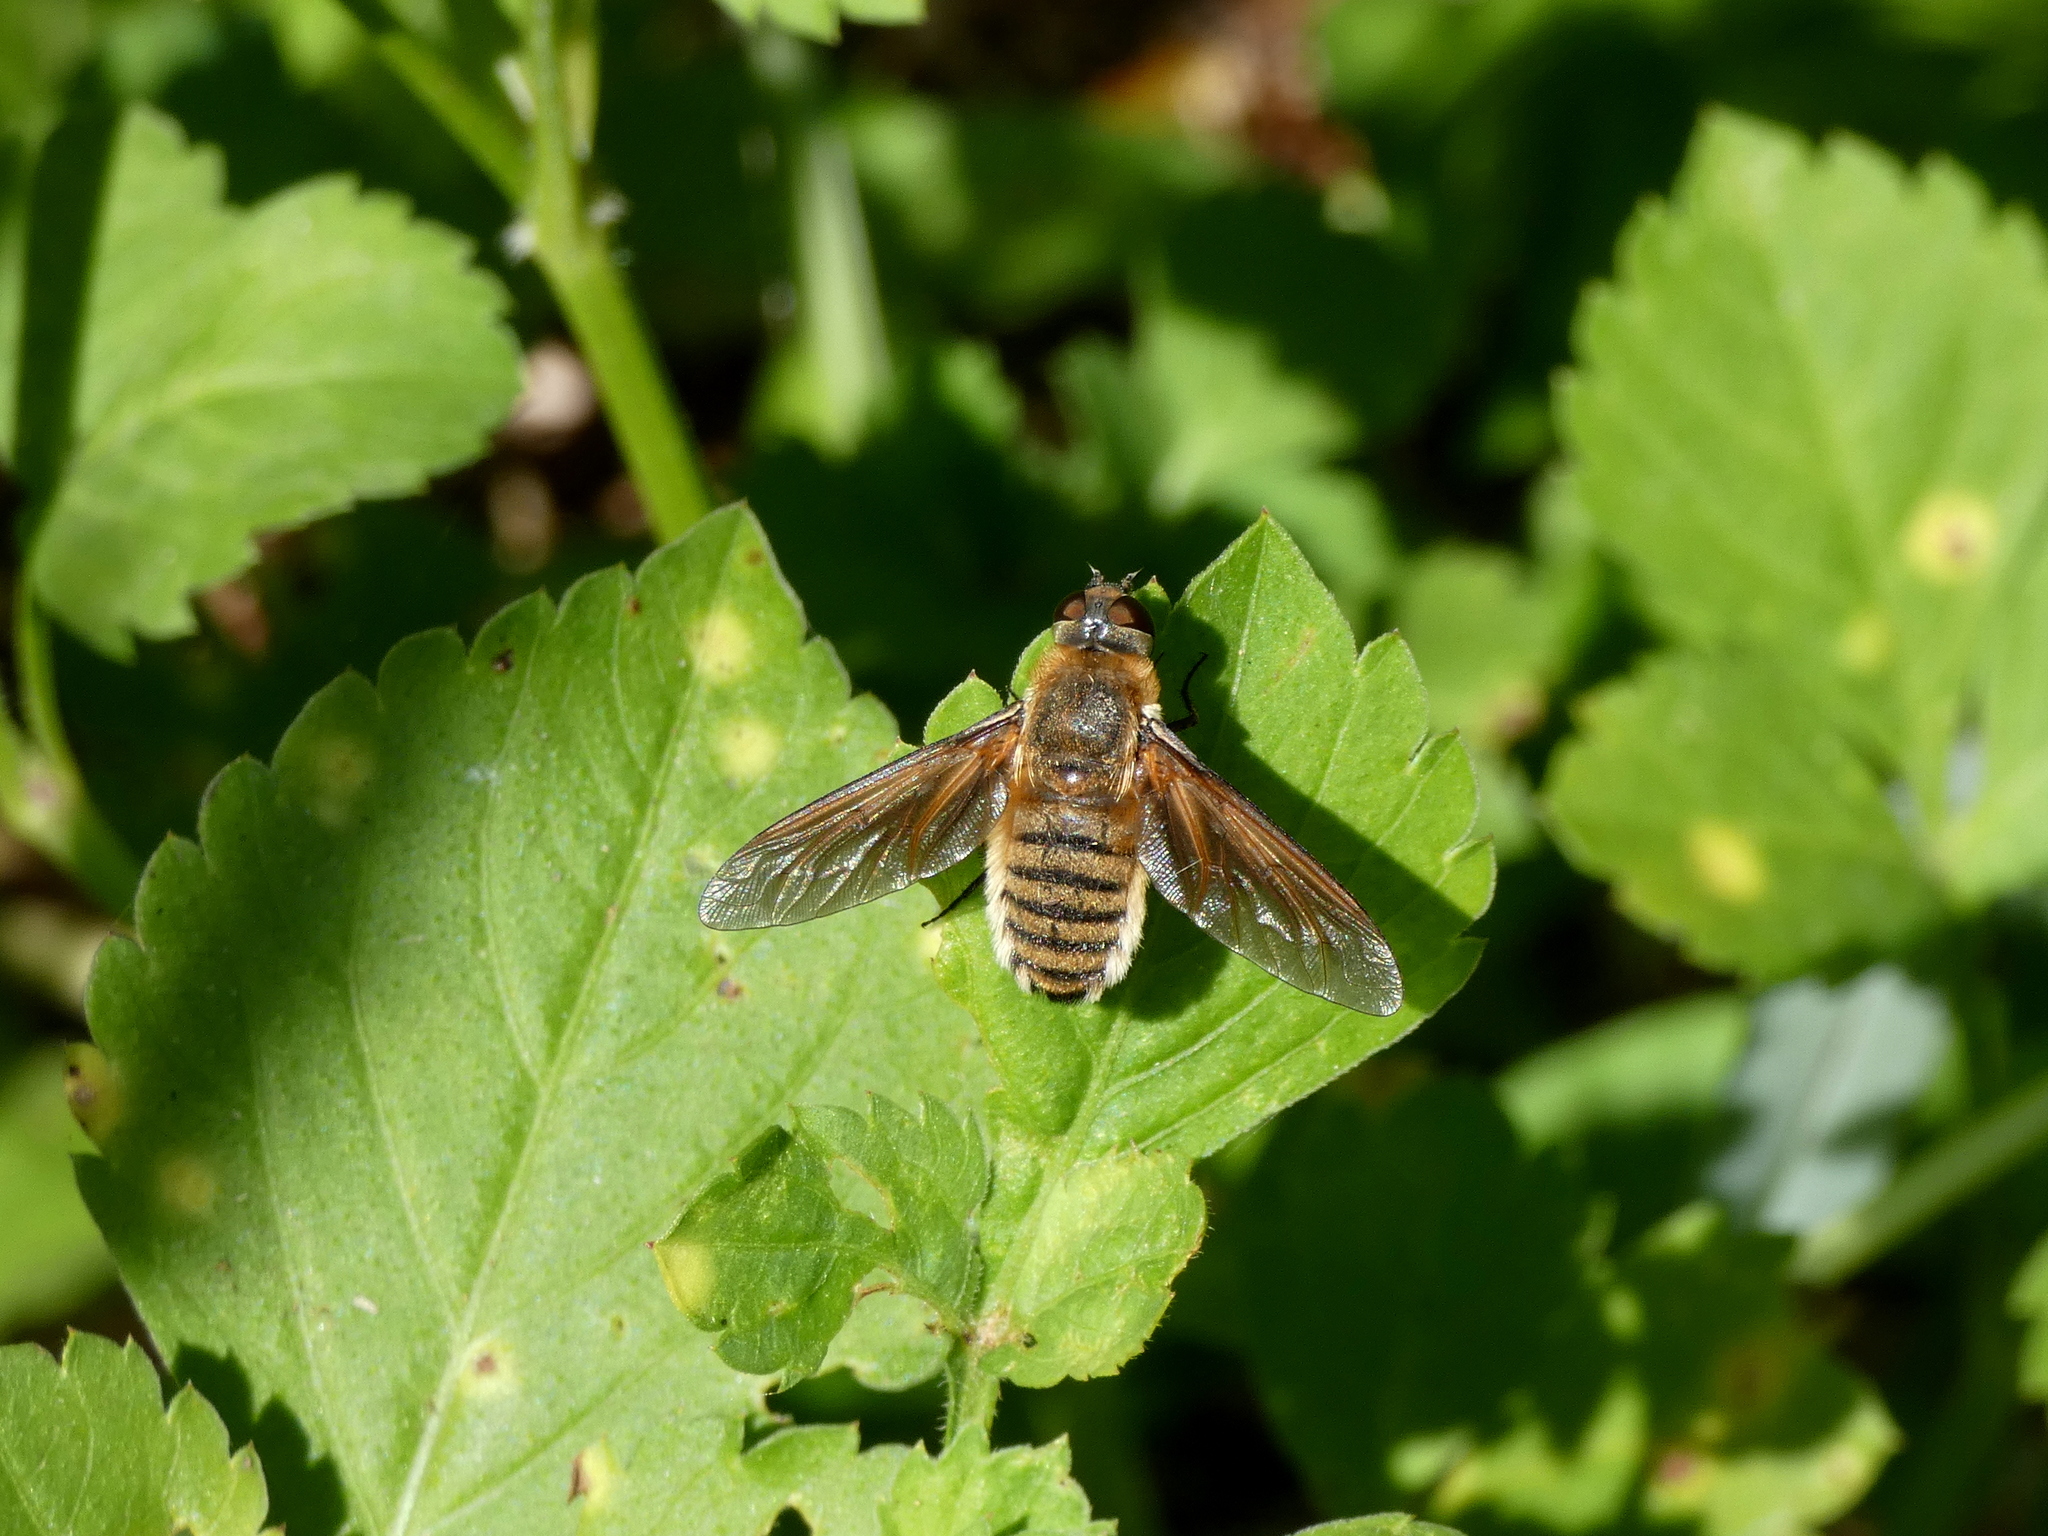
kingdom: Animalia
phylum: Arthropoda
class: Insecta
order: Diptera
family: Bombyliidae
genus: Poecilanthrax
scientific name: Poecilanthrax lucifer
